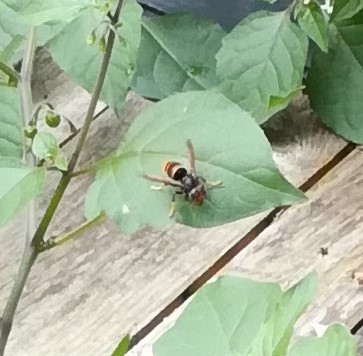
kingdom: Animalia
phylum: Arthropoda
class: Insecta
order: Hymenoptera
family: Vespidae
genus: Vespa
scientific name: Vespa velutina
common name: Asian hornet
